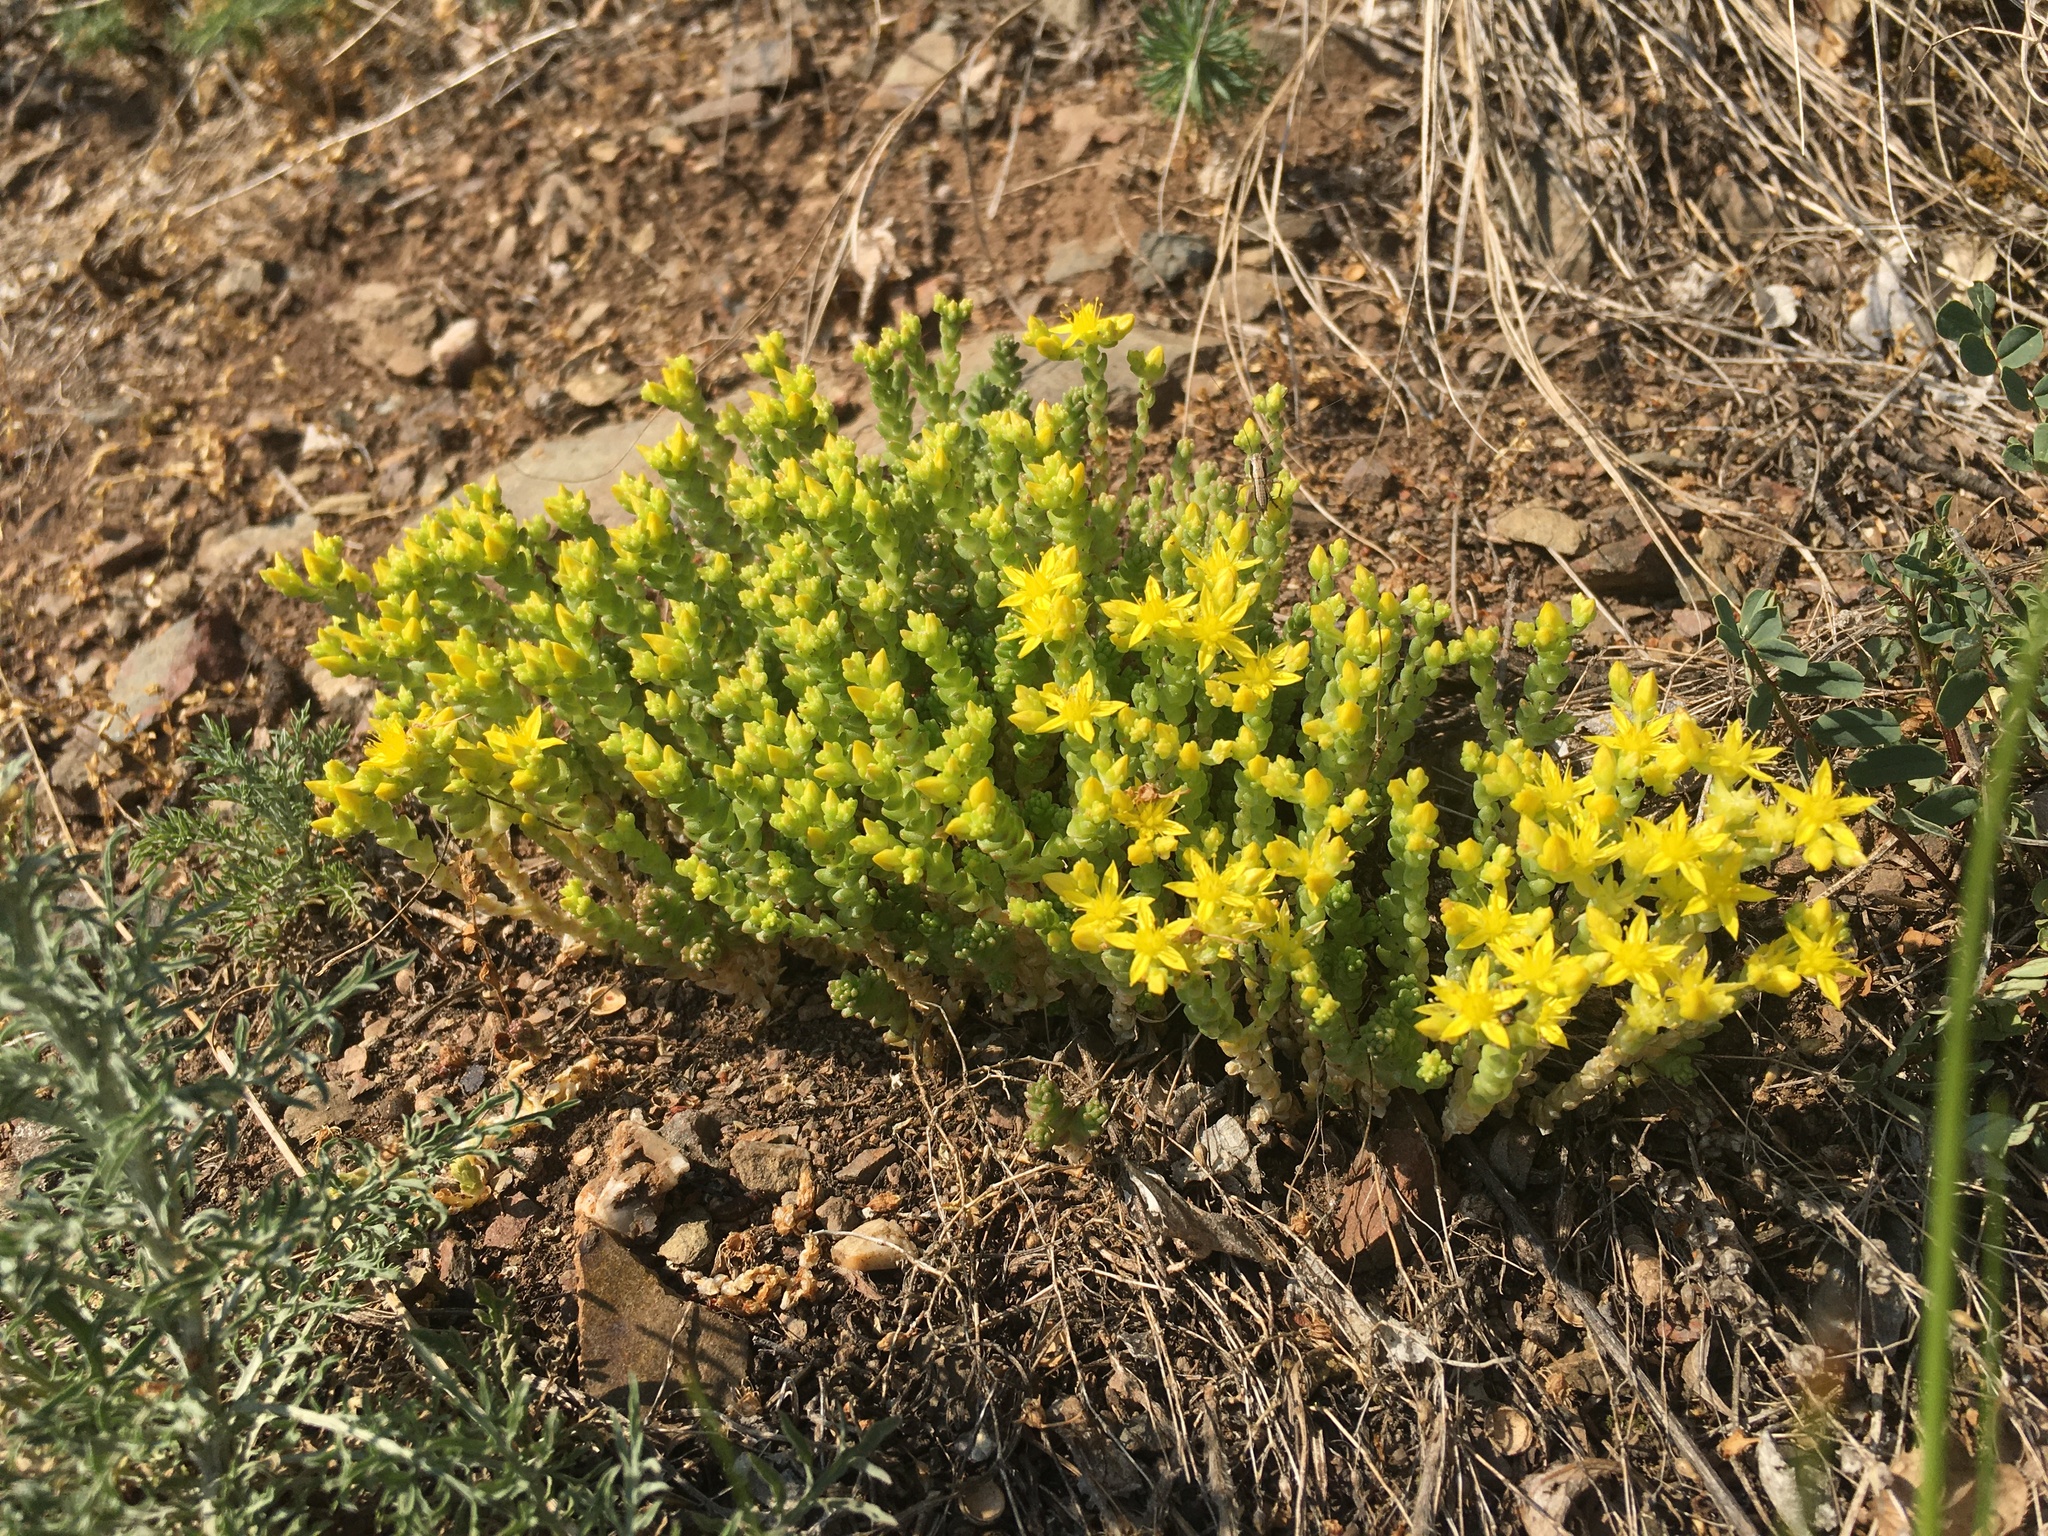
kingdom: Plantae
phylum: Tracheophyta
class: Magnoliopsida
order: Saxifragales
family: Crassulaceae
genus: Sedum
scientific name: Sedum acre
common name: Biting stonecrop
